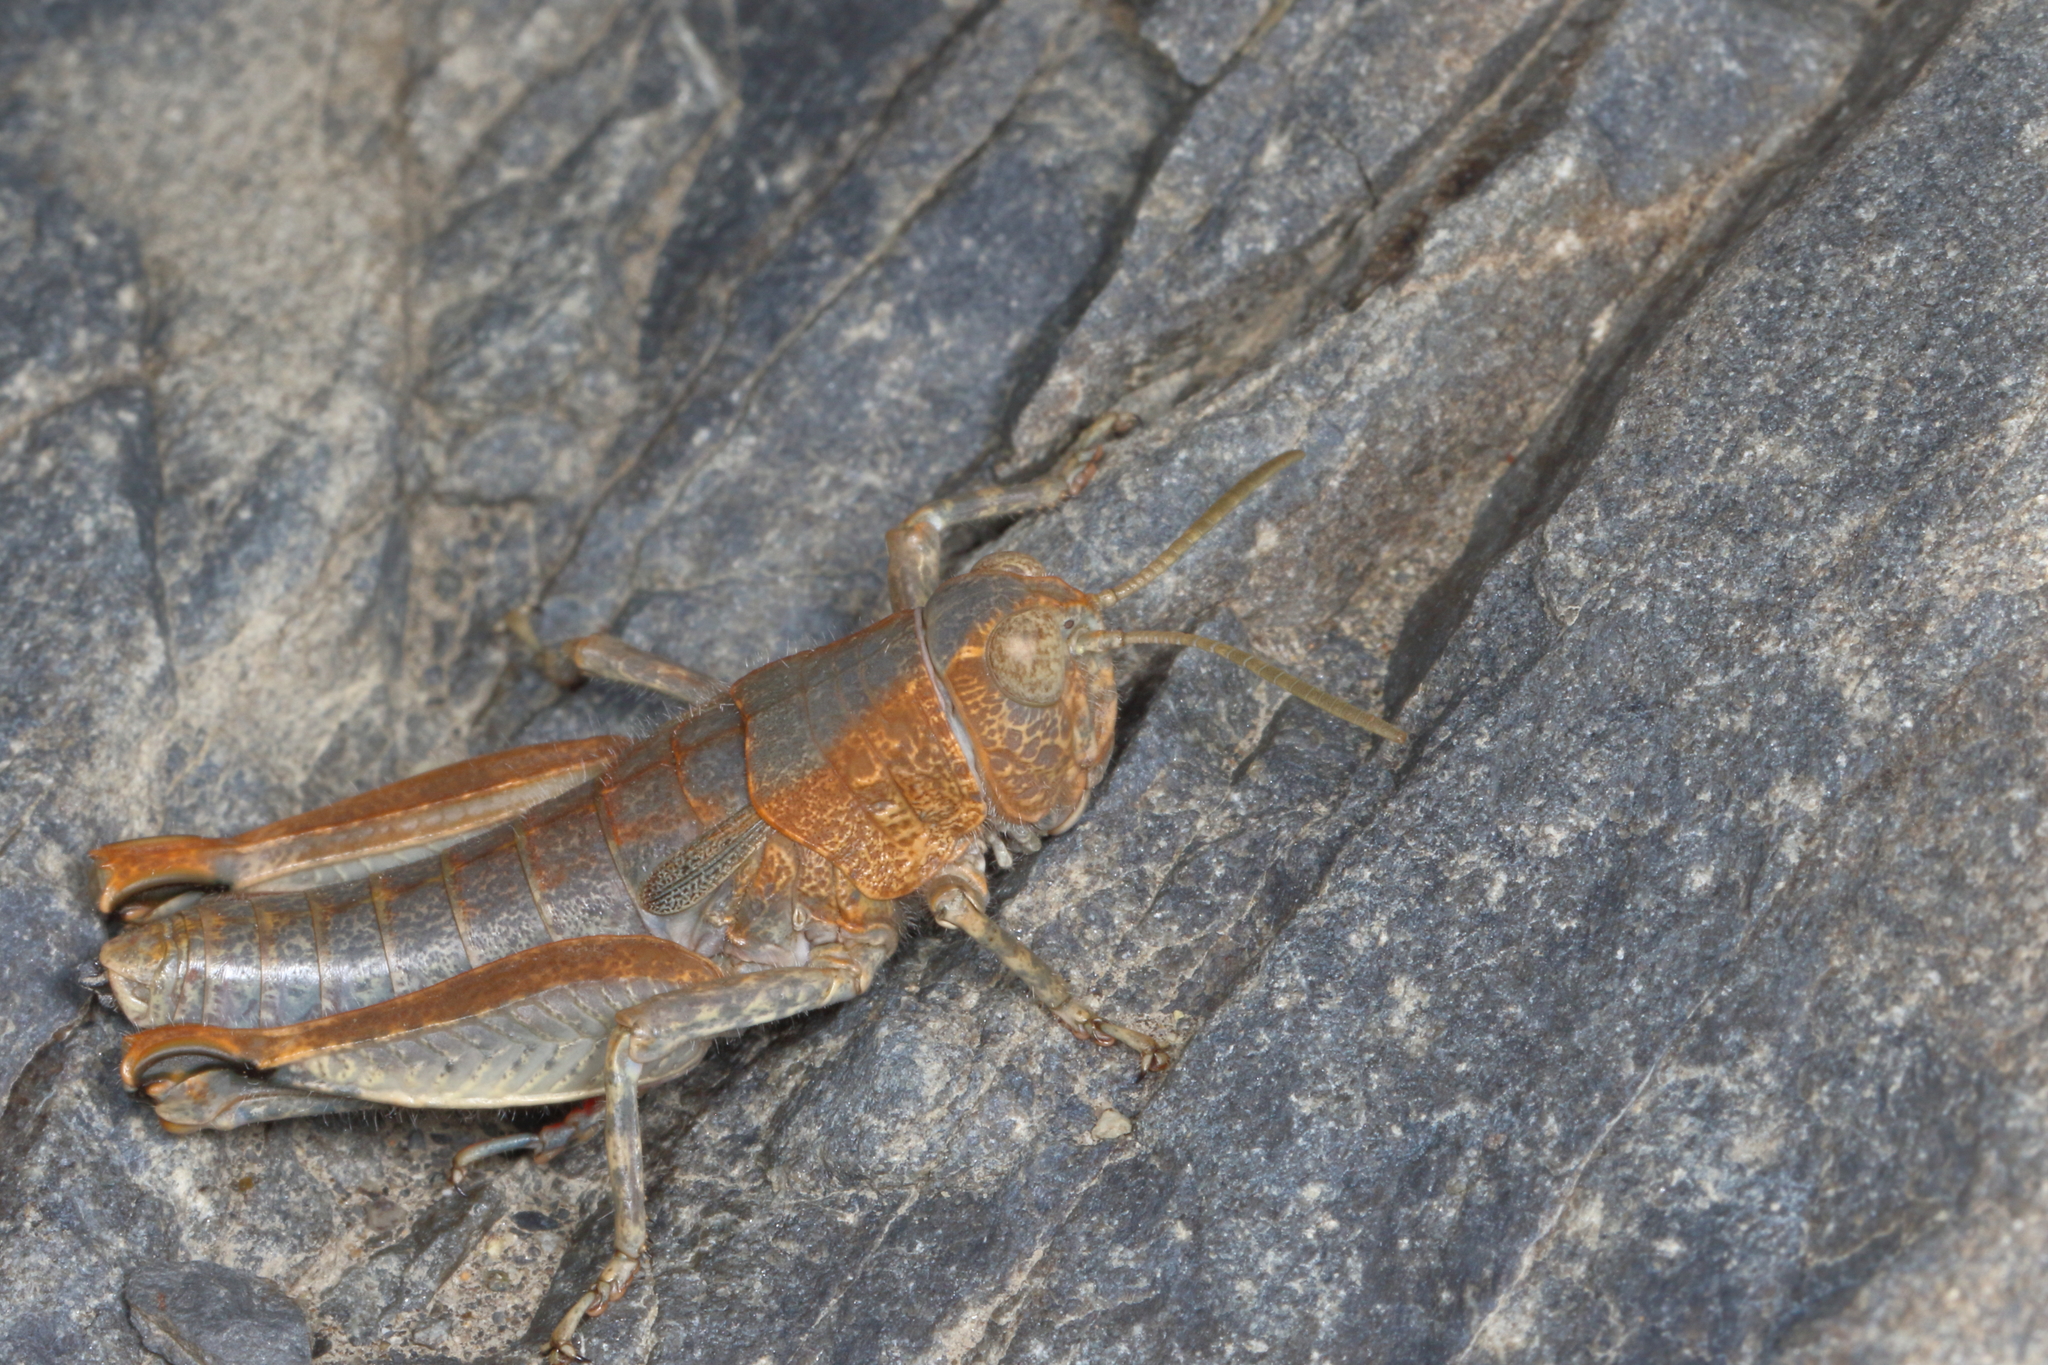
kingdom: Animalia
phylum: Arthropoda
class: Insecta
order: Orthoptera
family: Acrididae
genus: Sigaus
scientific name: Sigaus
